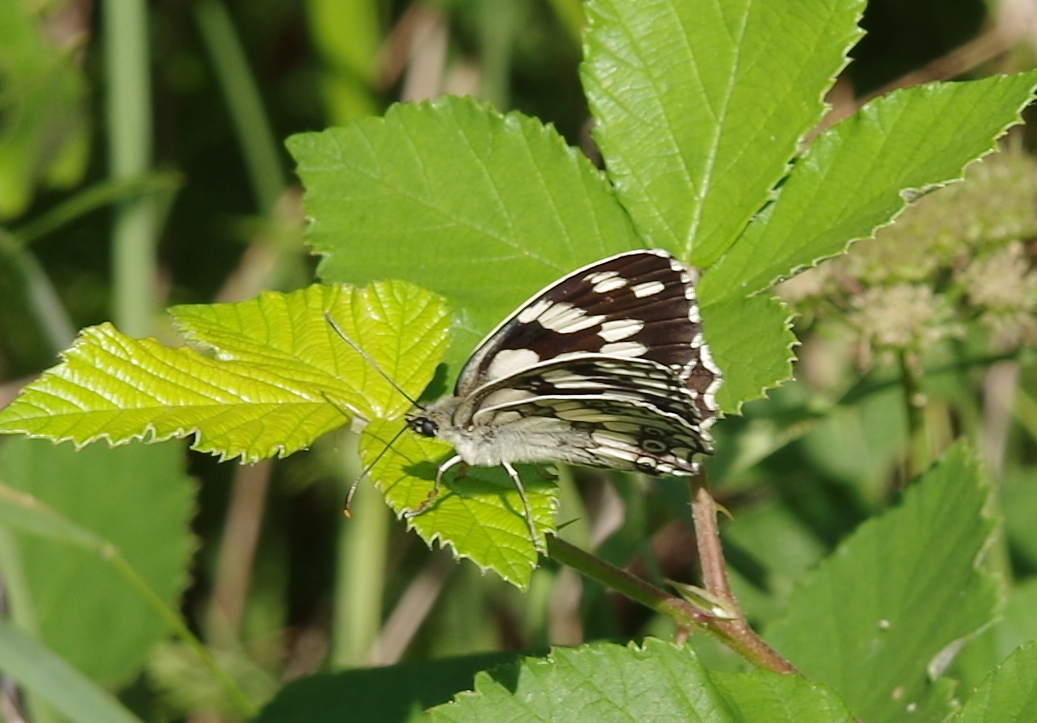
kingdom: Animalia
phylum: Arthropoda
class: Insecta
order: Lepidoptera
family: Nymphalidae
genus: Melanargia
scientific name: Melanargia galathea
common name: Marbled white
